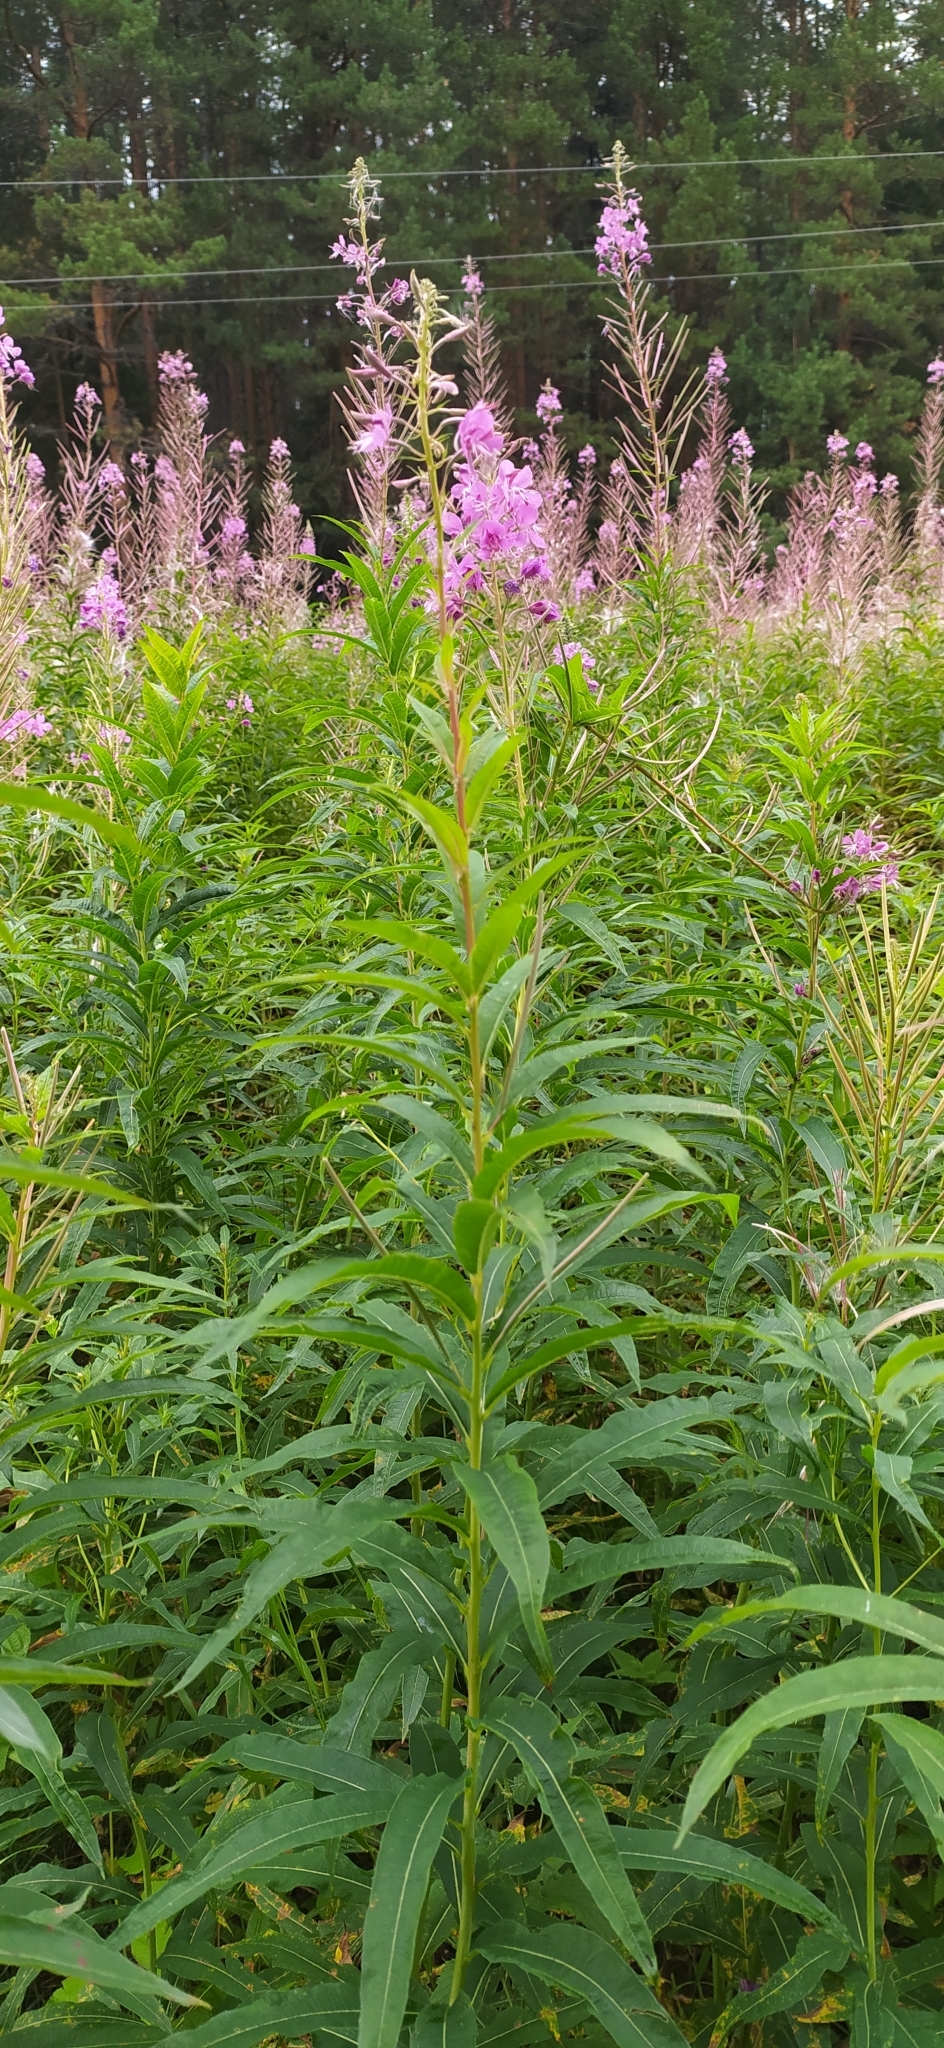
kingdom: Plantae
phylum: Tracheophyta
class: Magnoliopsida
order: Myrtales
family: Onagraceae
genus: Chamaenerion
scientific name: Chamaenerion angustifolium
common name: Fireweed
